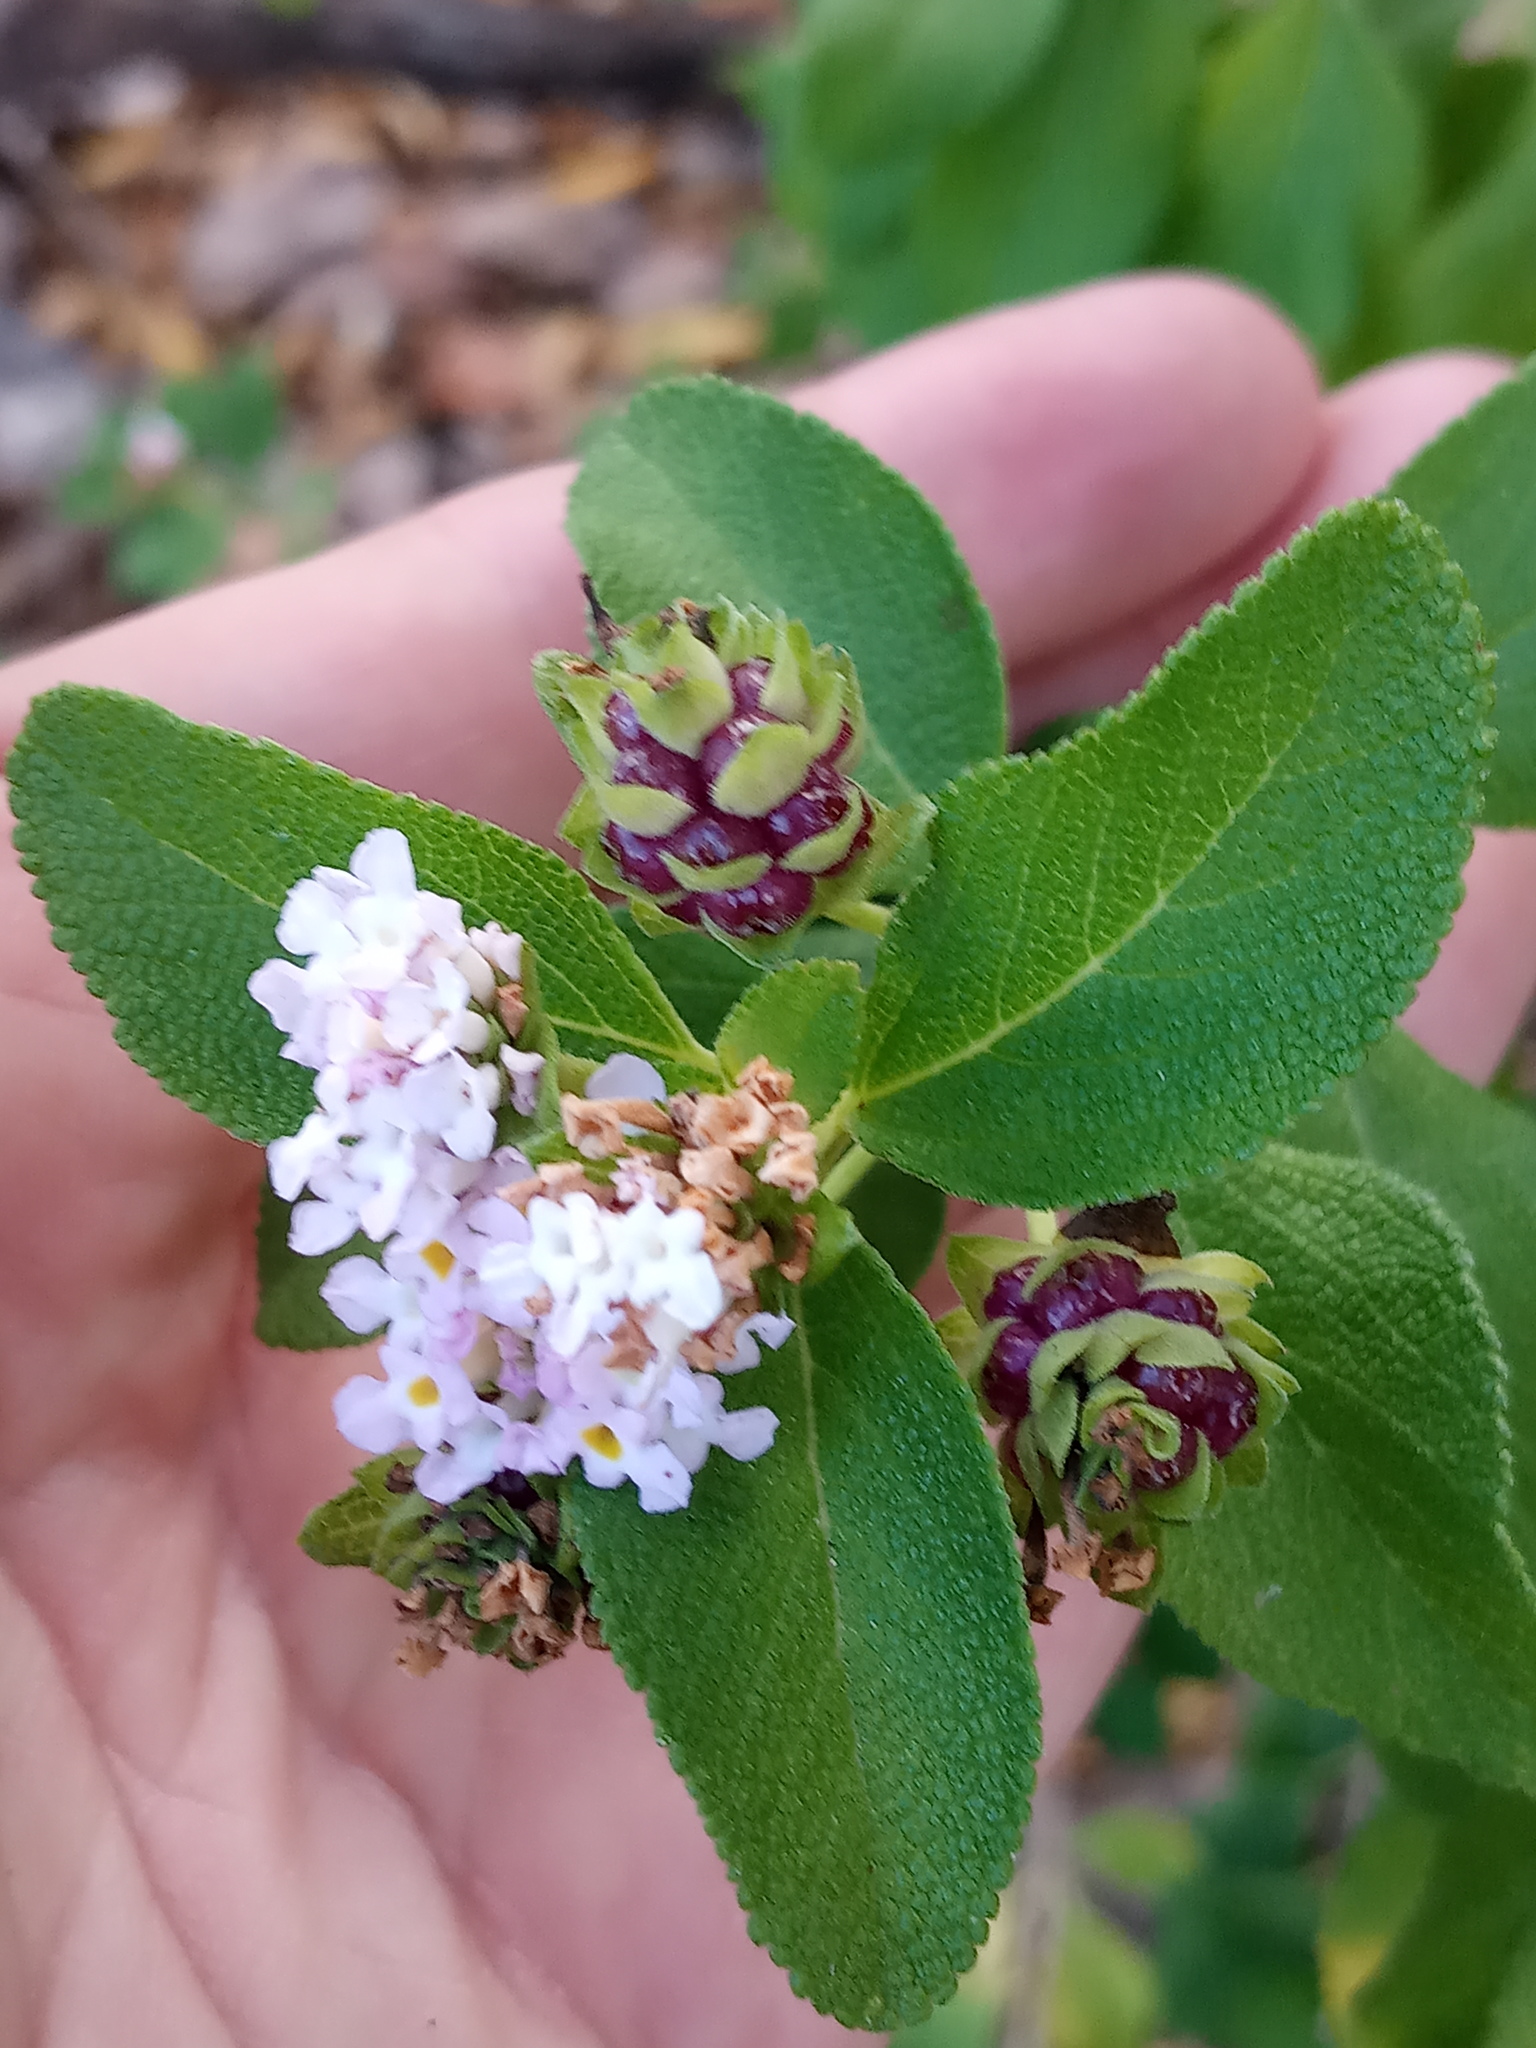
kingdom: Plantae
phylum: Tracheophyta
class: Magnoliopsida
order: Lamiales
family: Verbenaceae
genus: Lantana
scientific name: Lantana involucrata
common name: Black sage
